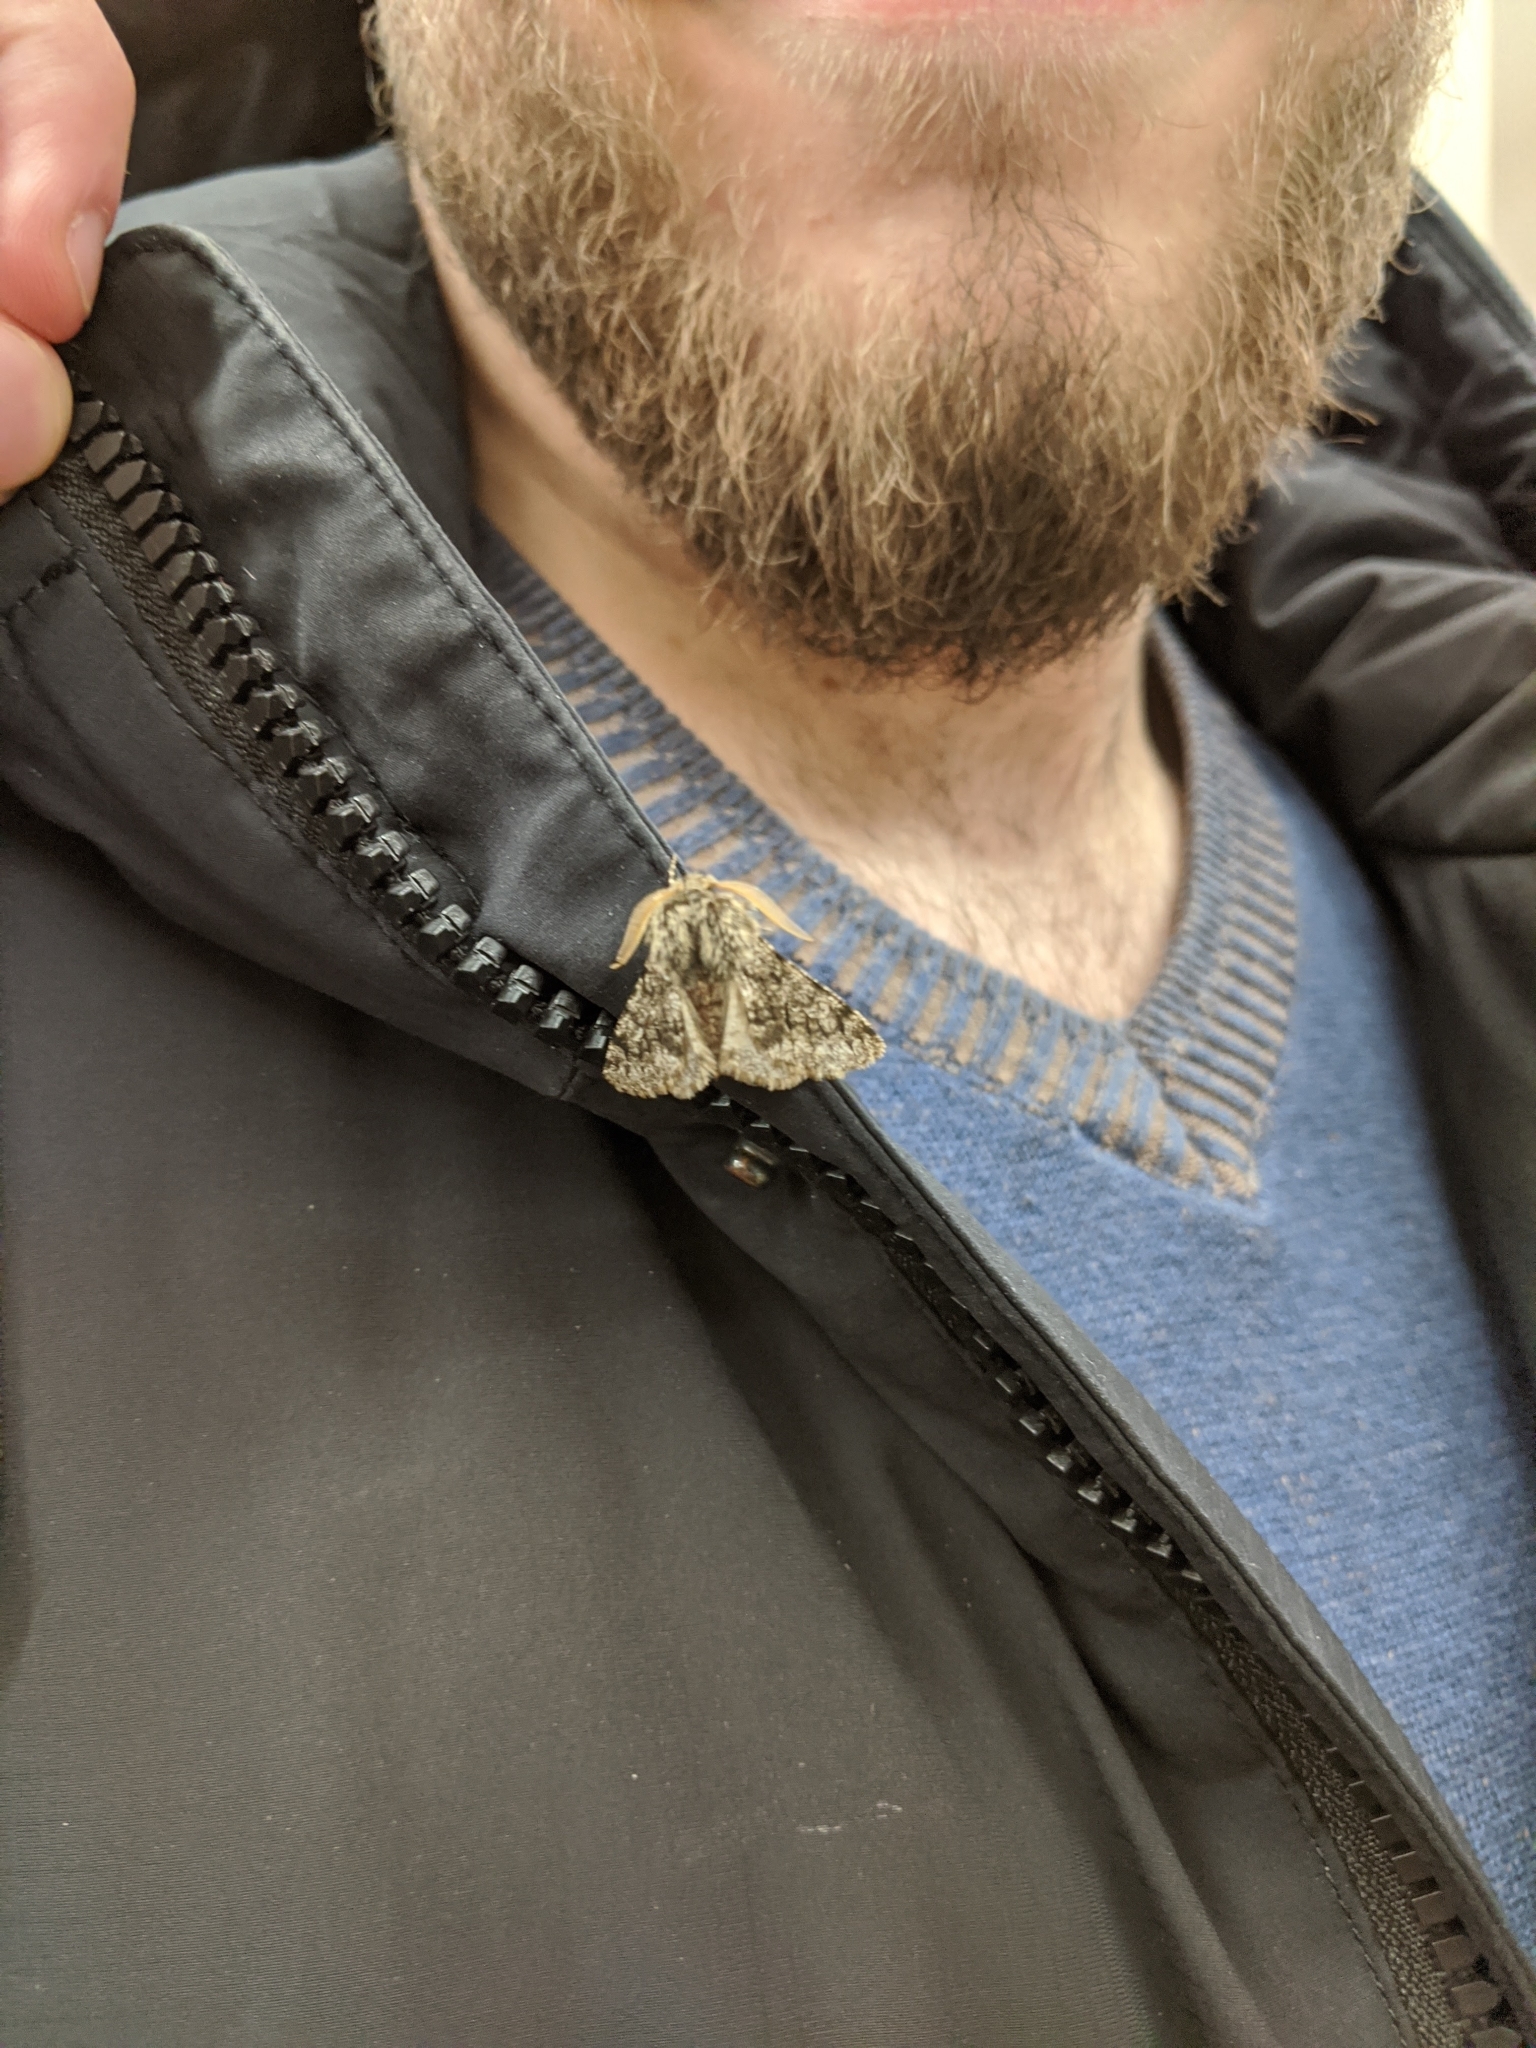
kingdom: Animalia
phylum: Arthropoda
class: Insecta
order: Lepidoptera
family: Geometridae
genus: Phigalia
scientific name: Phigalia pilosaria
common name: Pale brindled beauty
